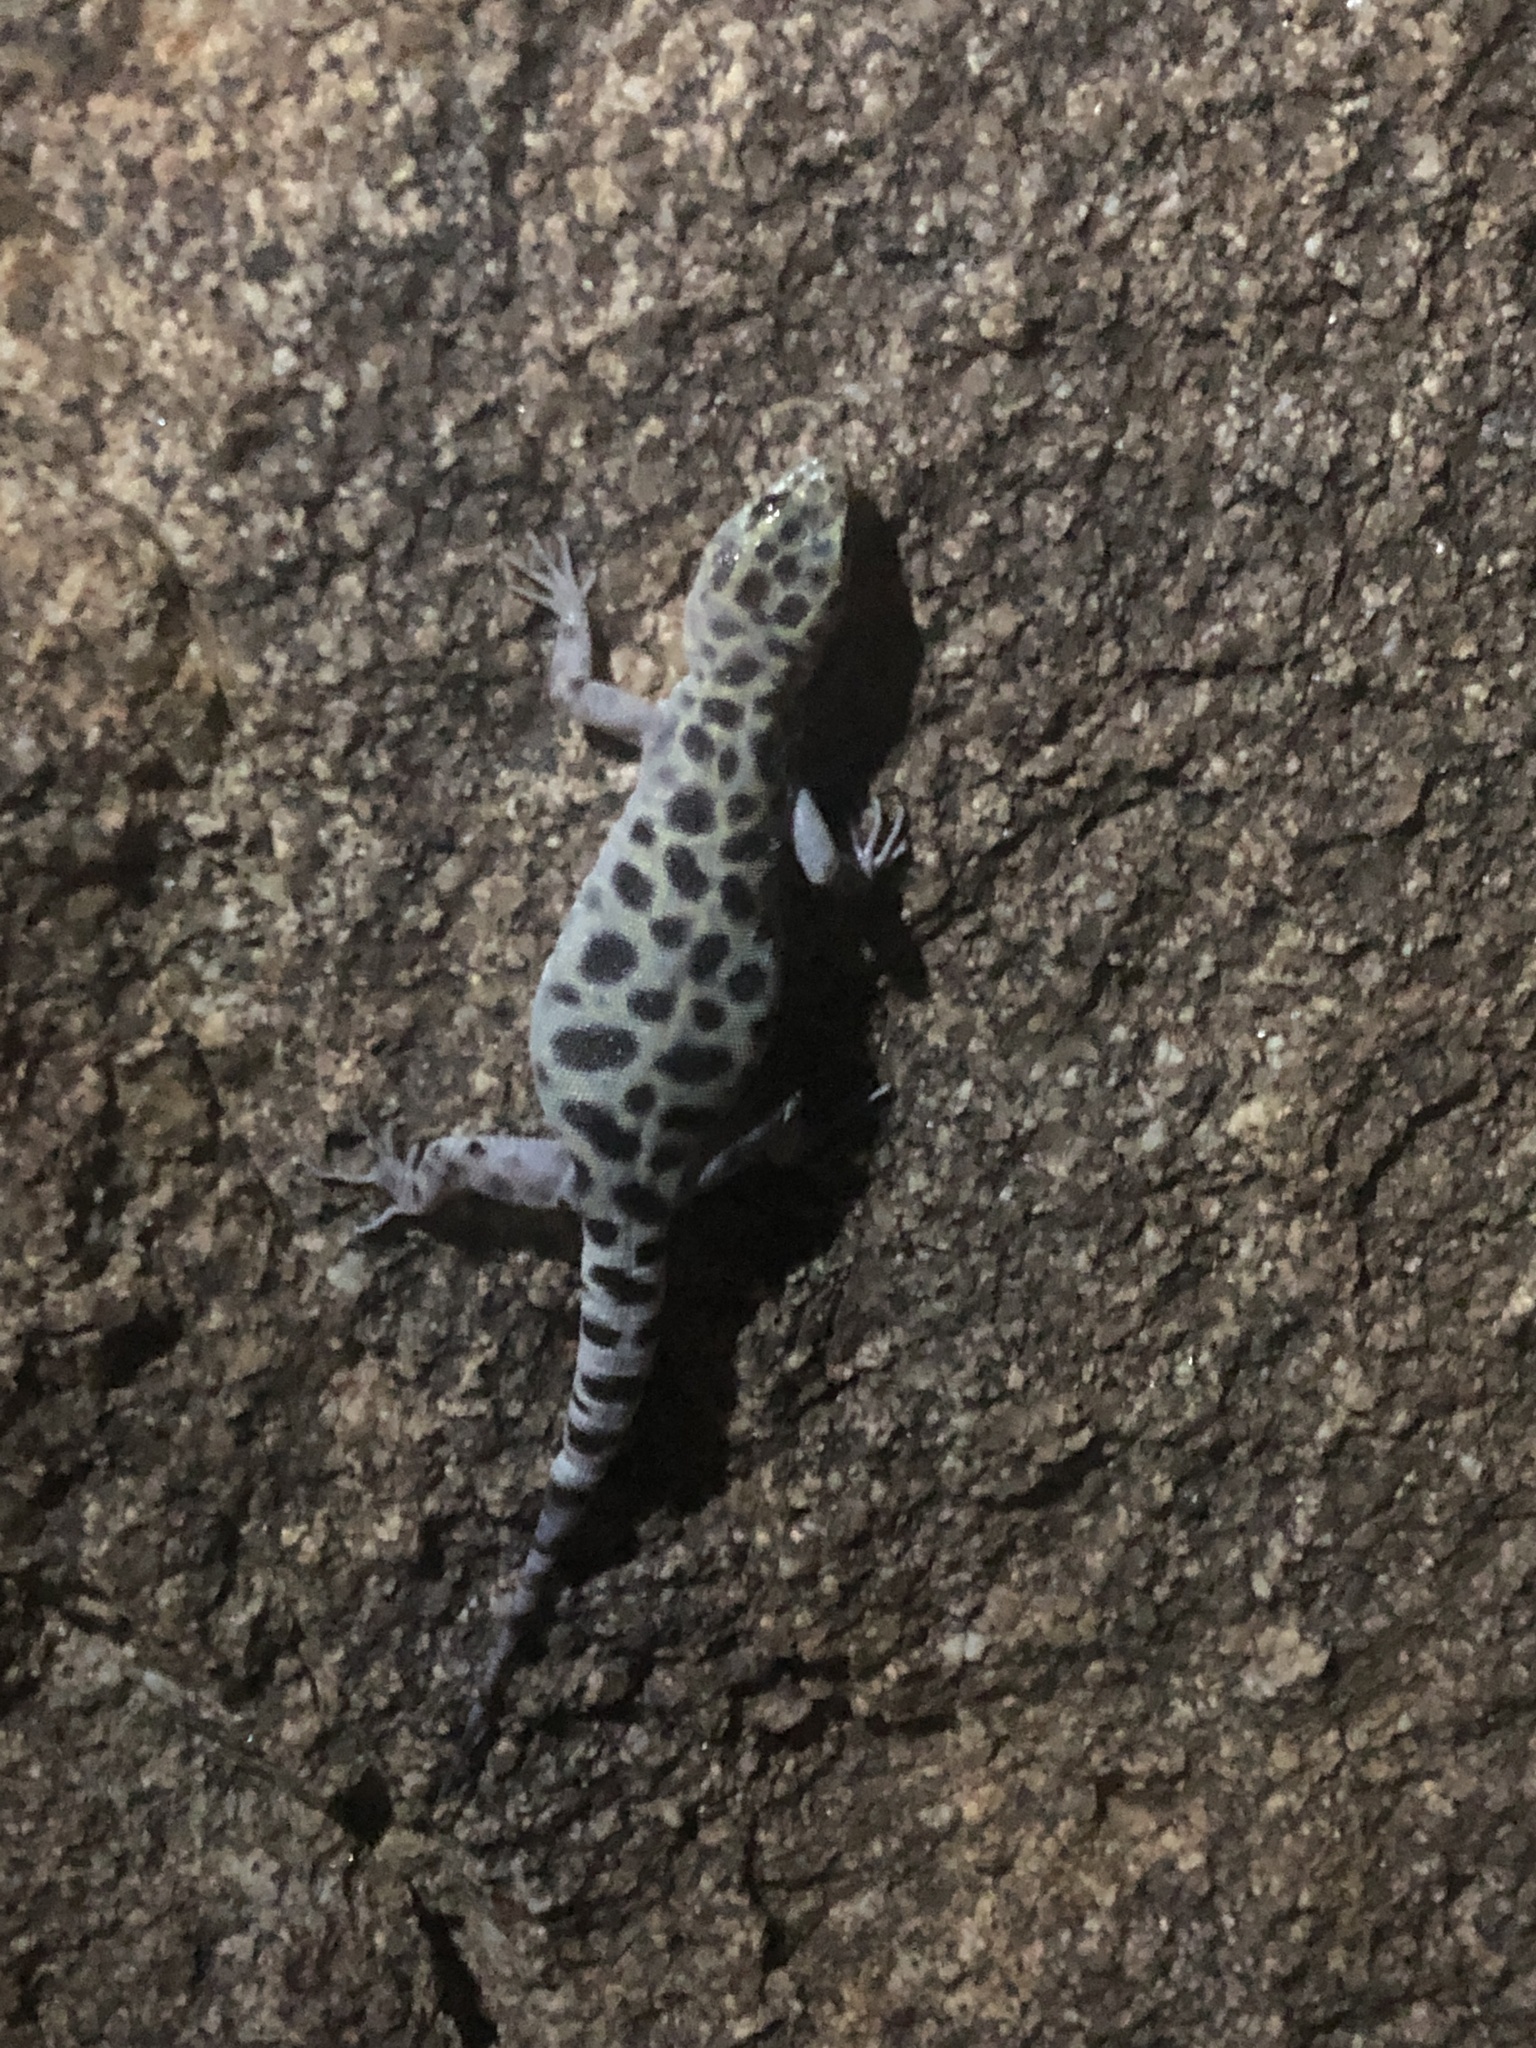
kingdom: Animalia
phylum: Chordata
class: Squamata
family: Xantusiidae
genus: Xantusia
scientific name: Xantusia henshawi
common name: Granite night lizard
